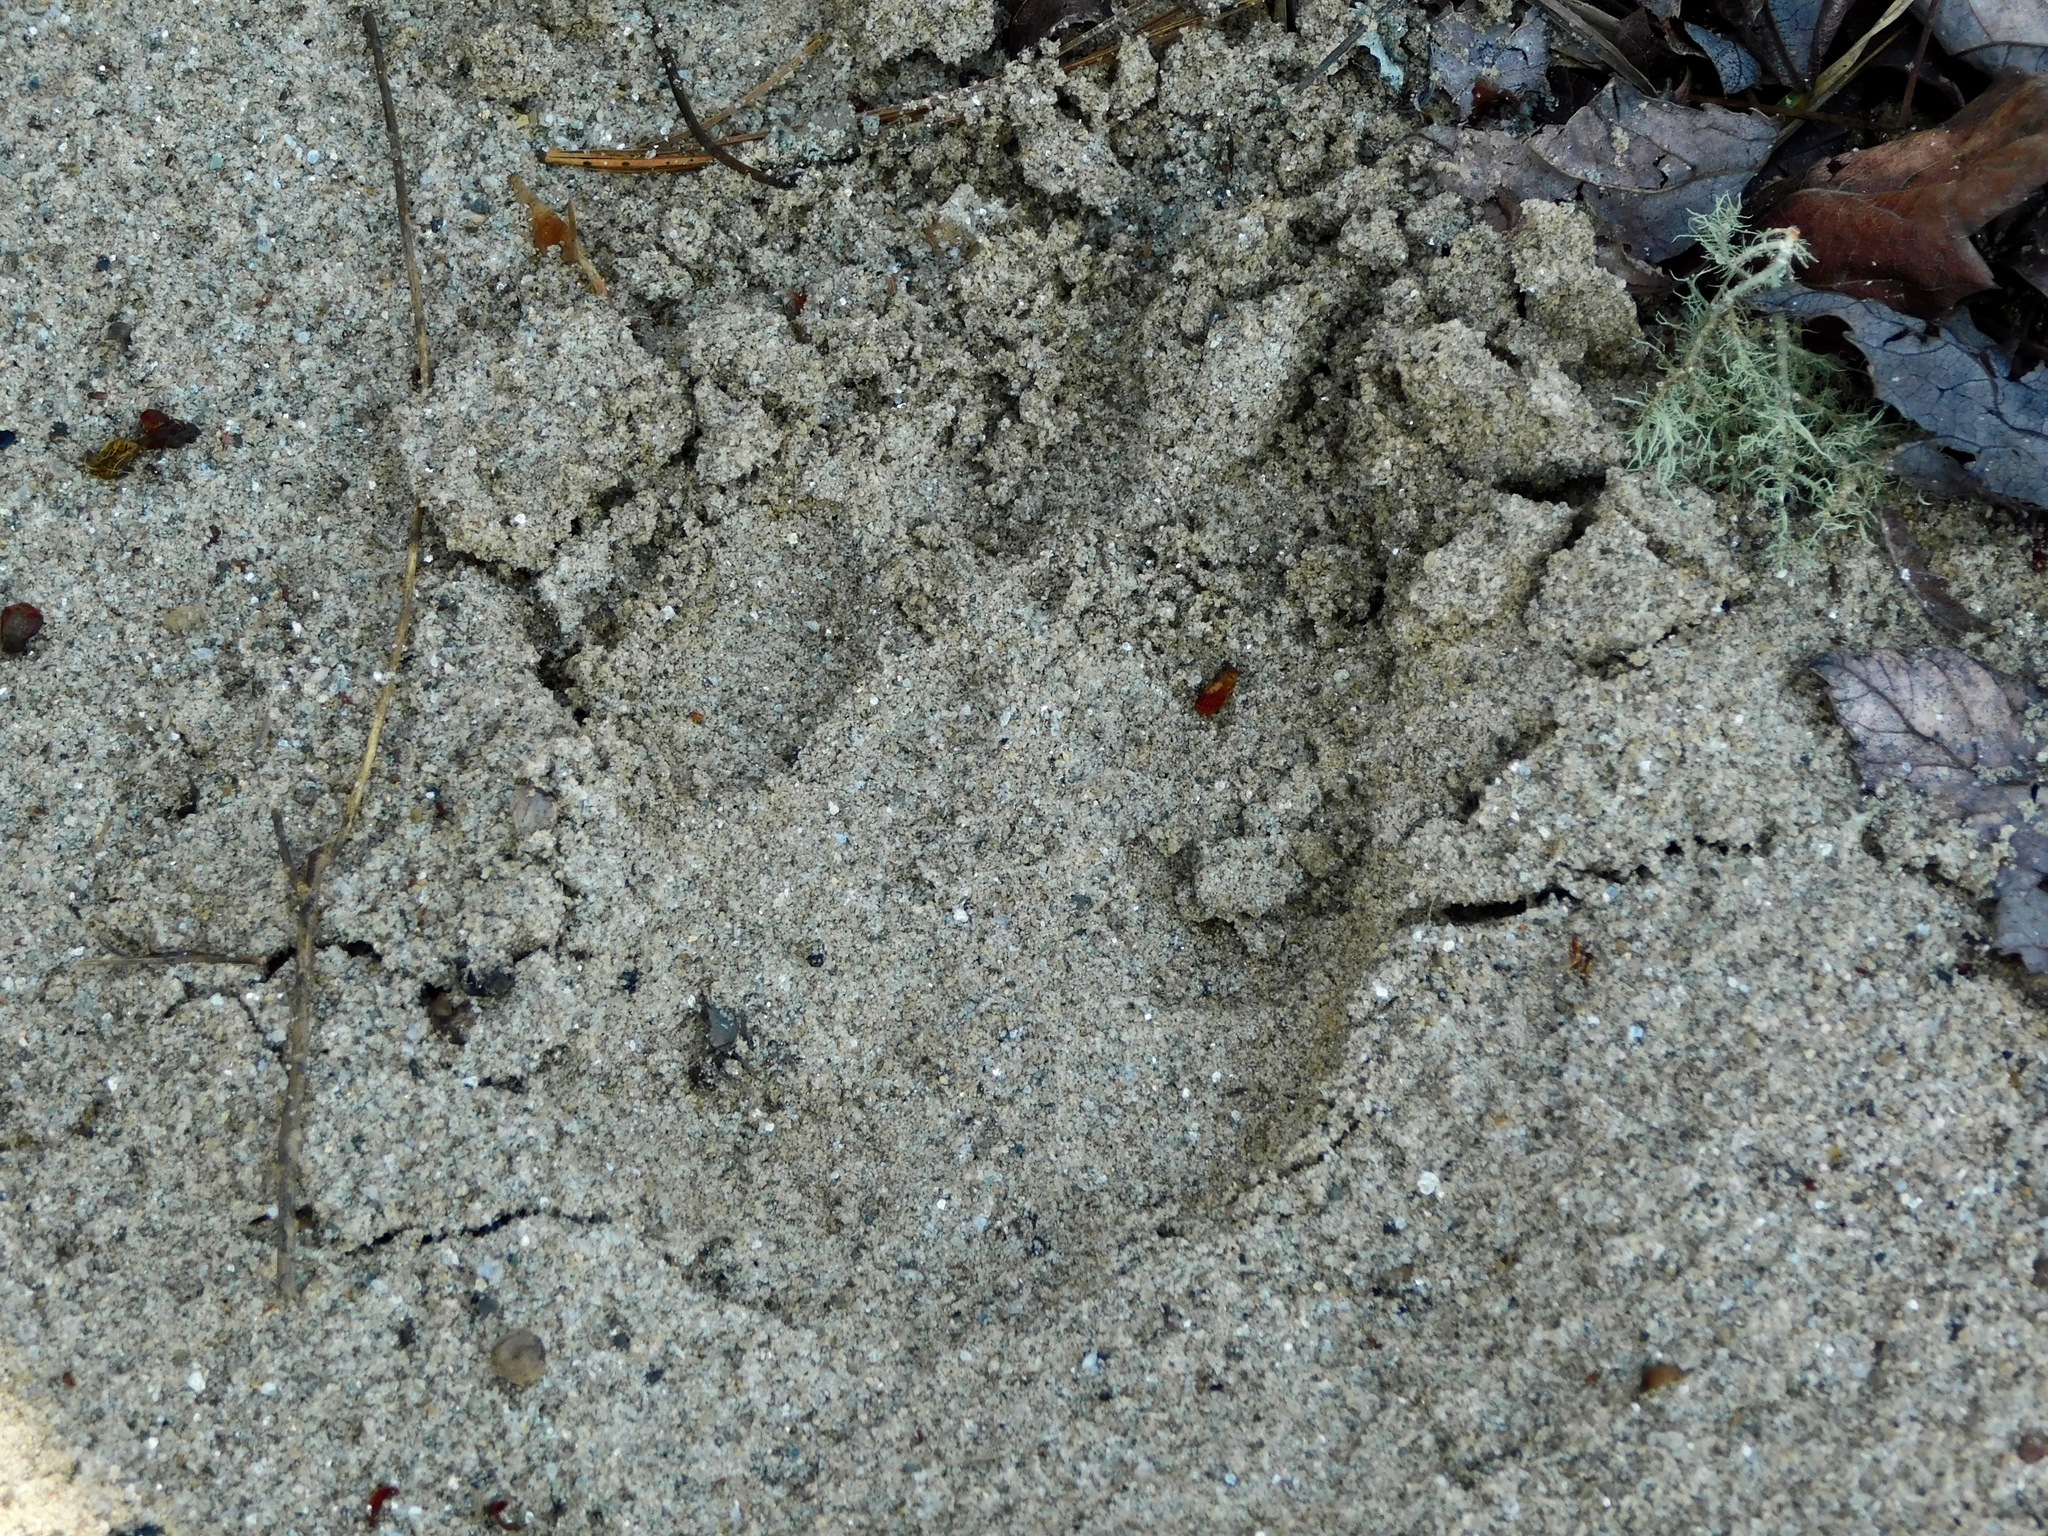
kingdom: Animalia
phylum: Chordata
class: Mammalia
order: Carnivora
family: Canidae
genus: Canis
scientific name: Canis latrans
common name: Coyote
